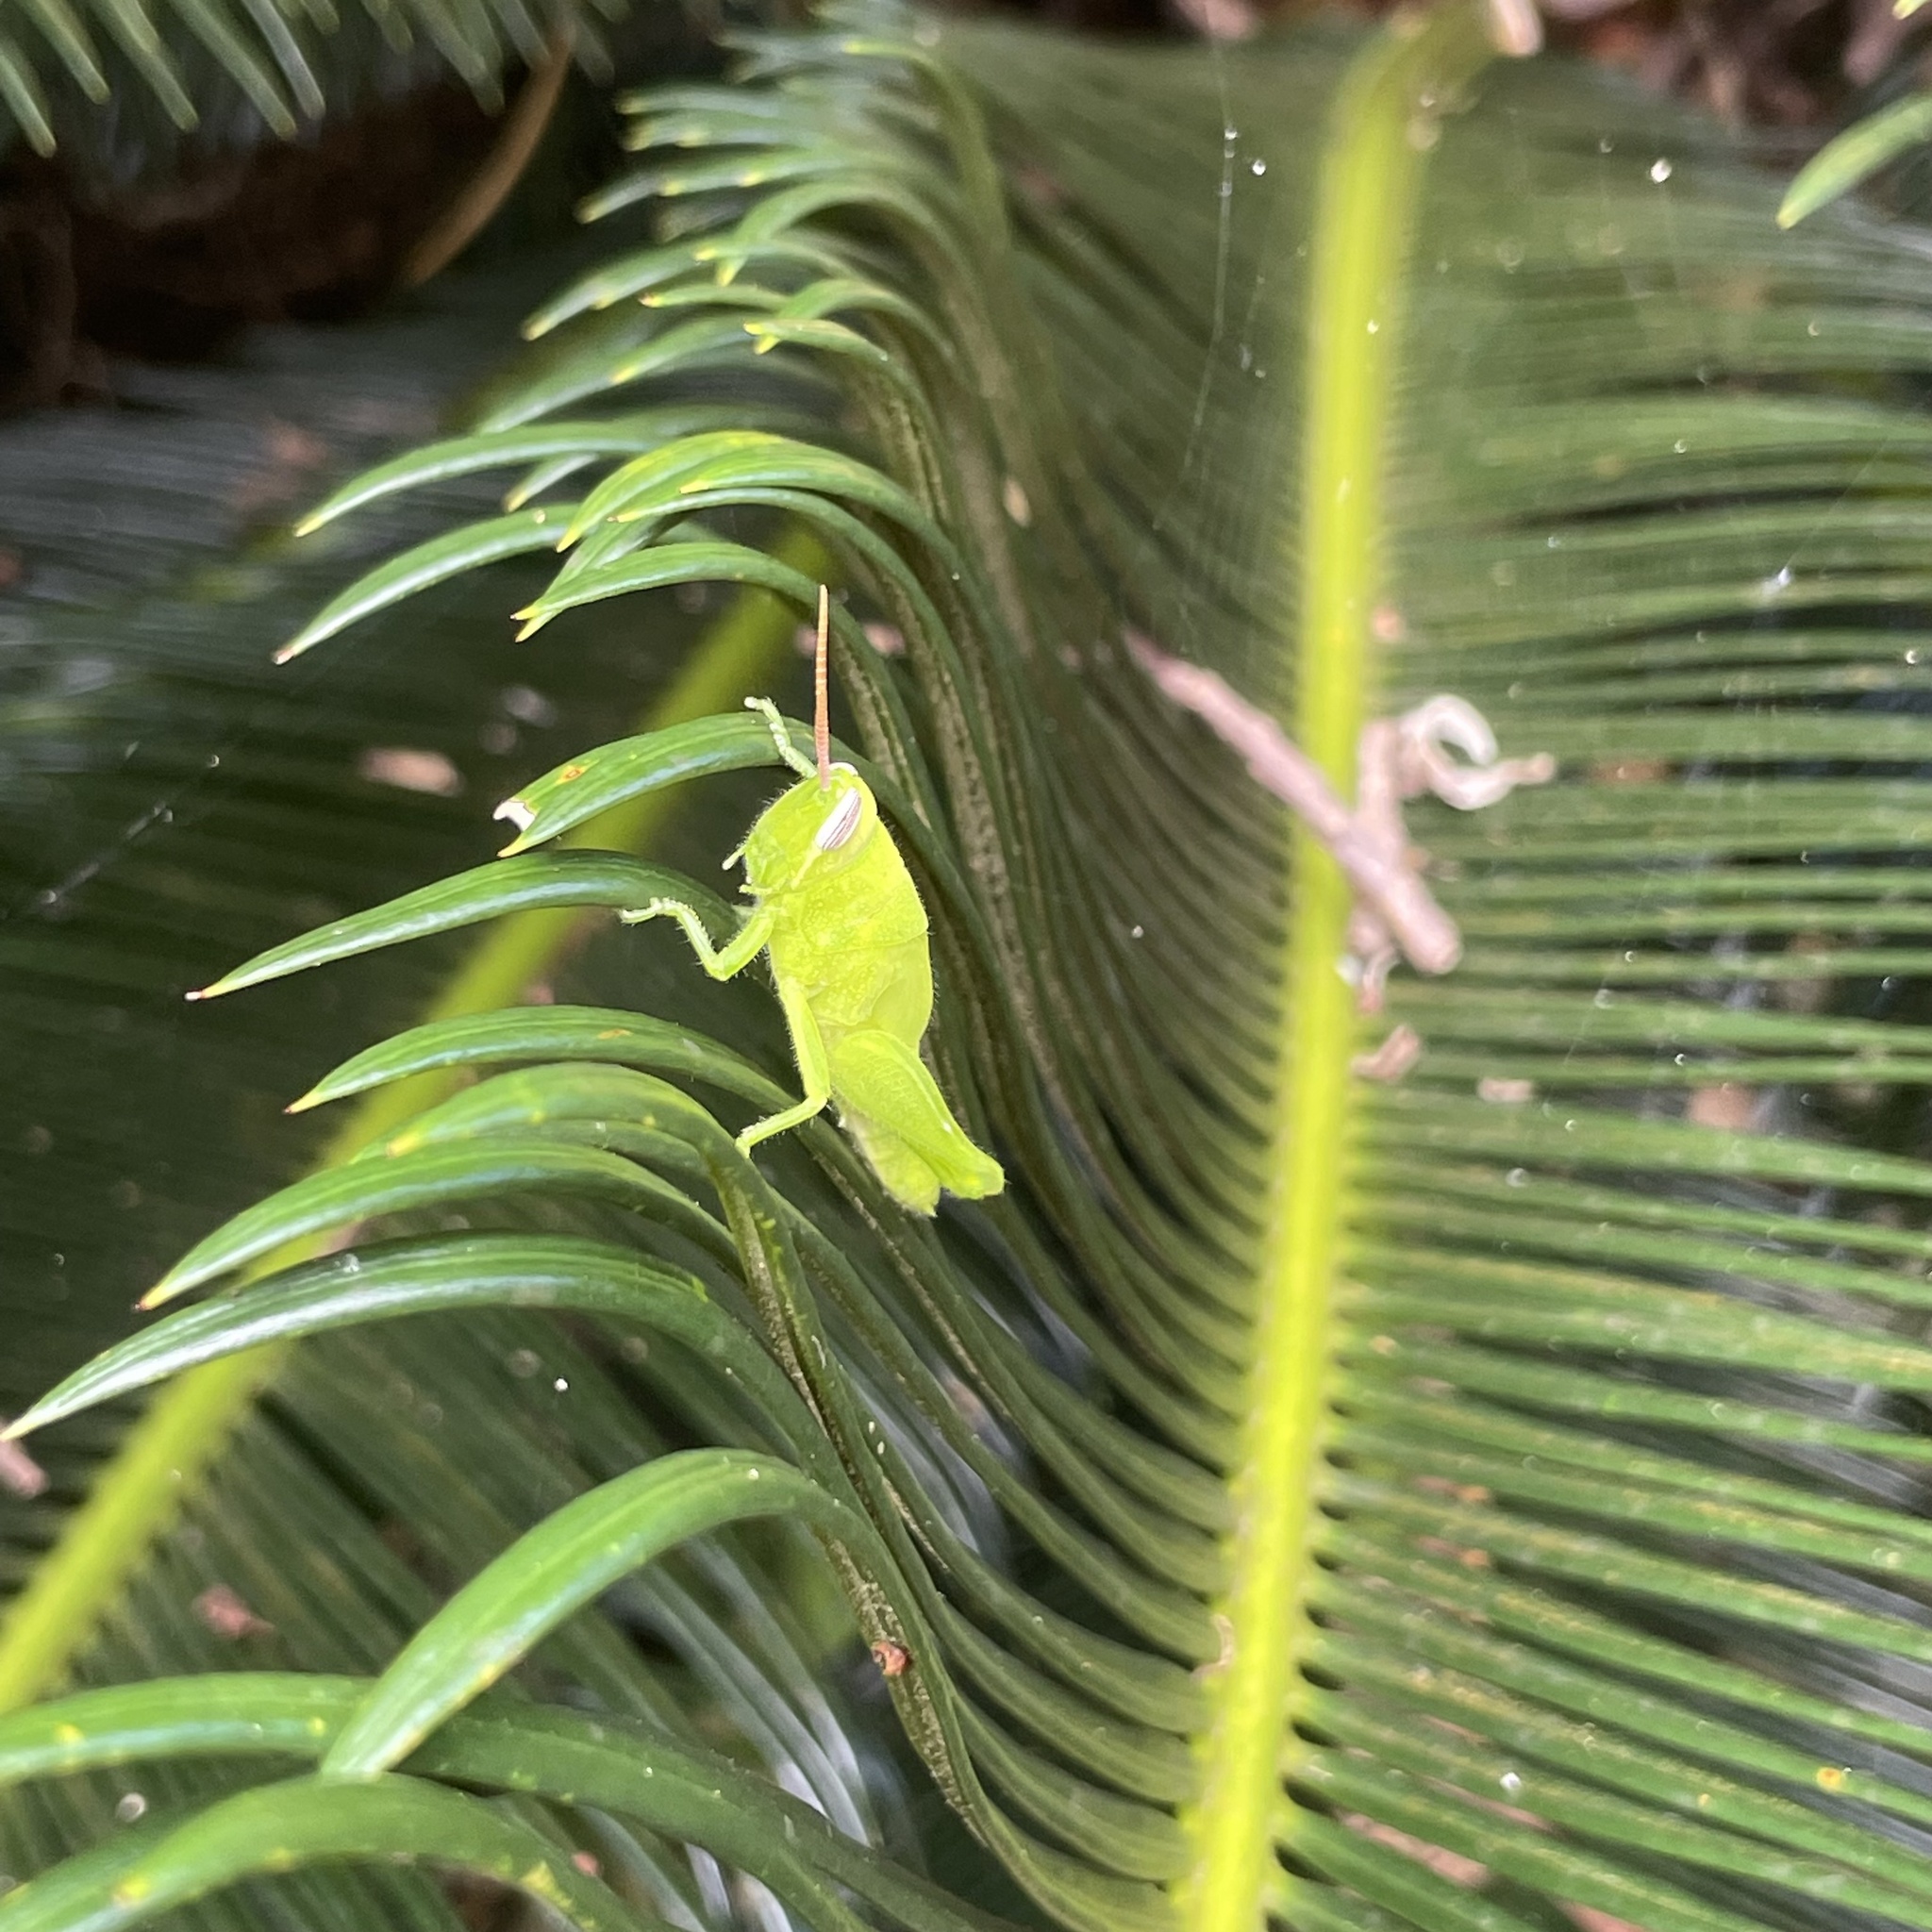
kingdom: Animalia
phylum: Arthropoda
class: Insecta
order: Orthoptera
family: Acrididae
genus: Stenocatantops
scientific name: Stenocatantops mistshenkoi
